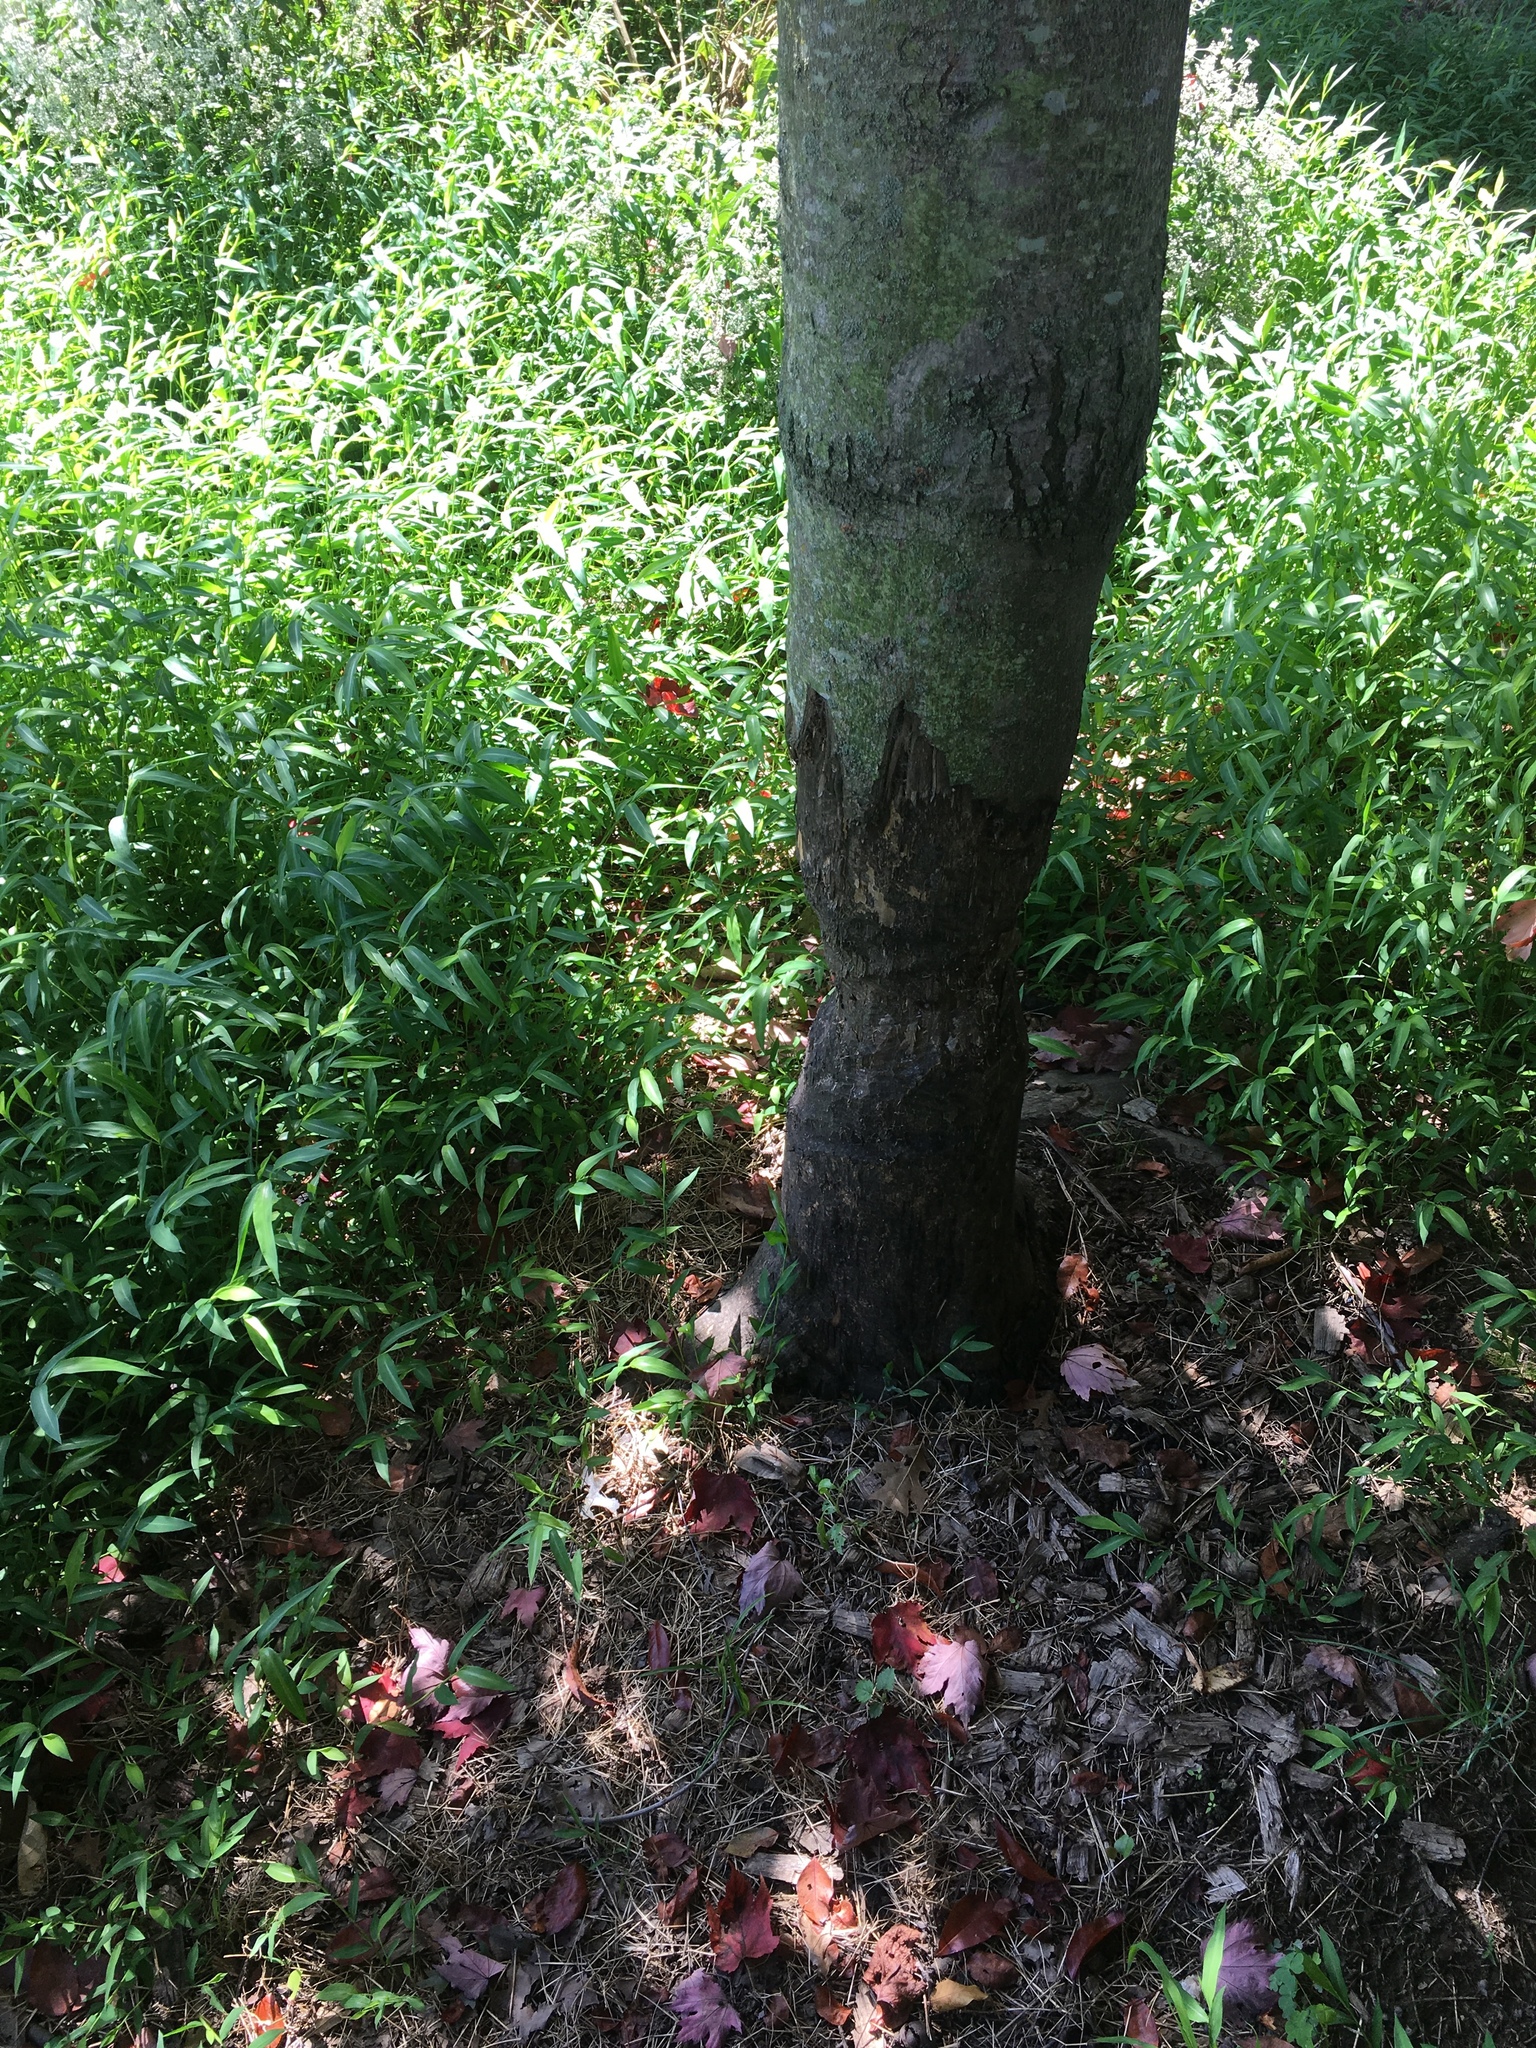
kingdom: Animalia
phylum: Chordata
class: Mammalia
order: Rodentia
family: Castoridae
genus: Castor
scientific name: Castor canadensis
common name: American beaver
